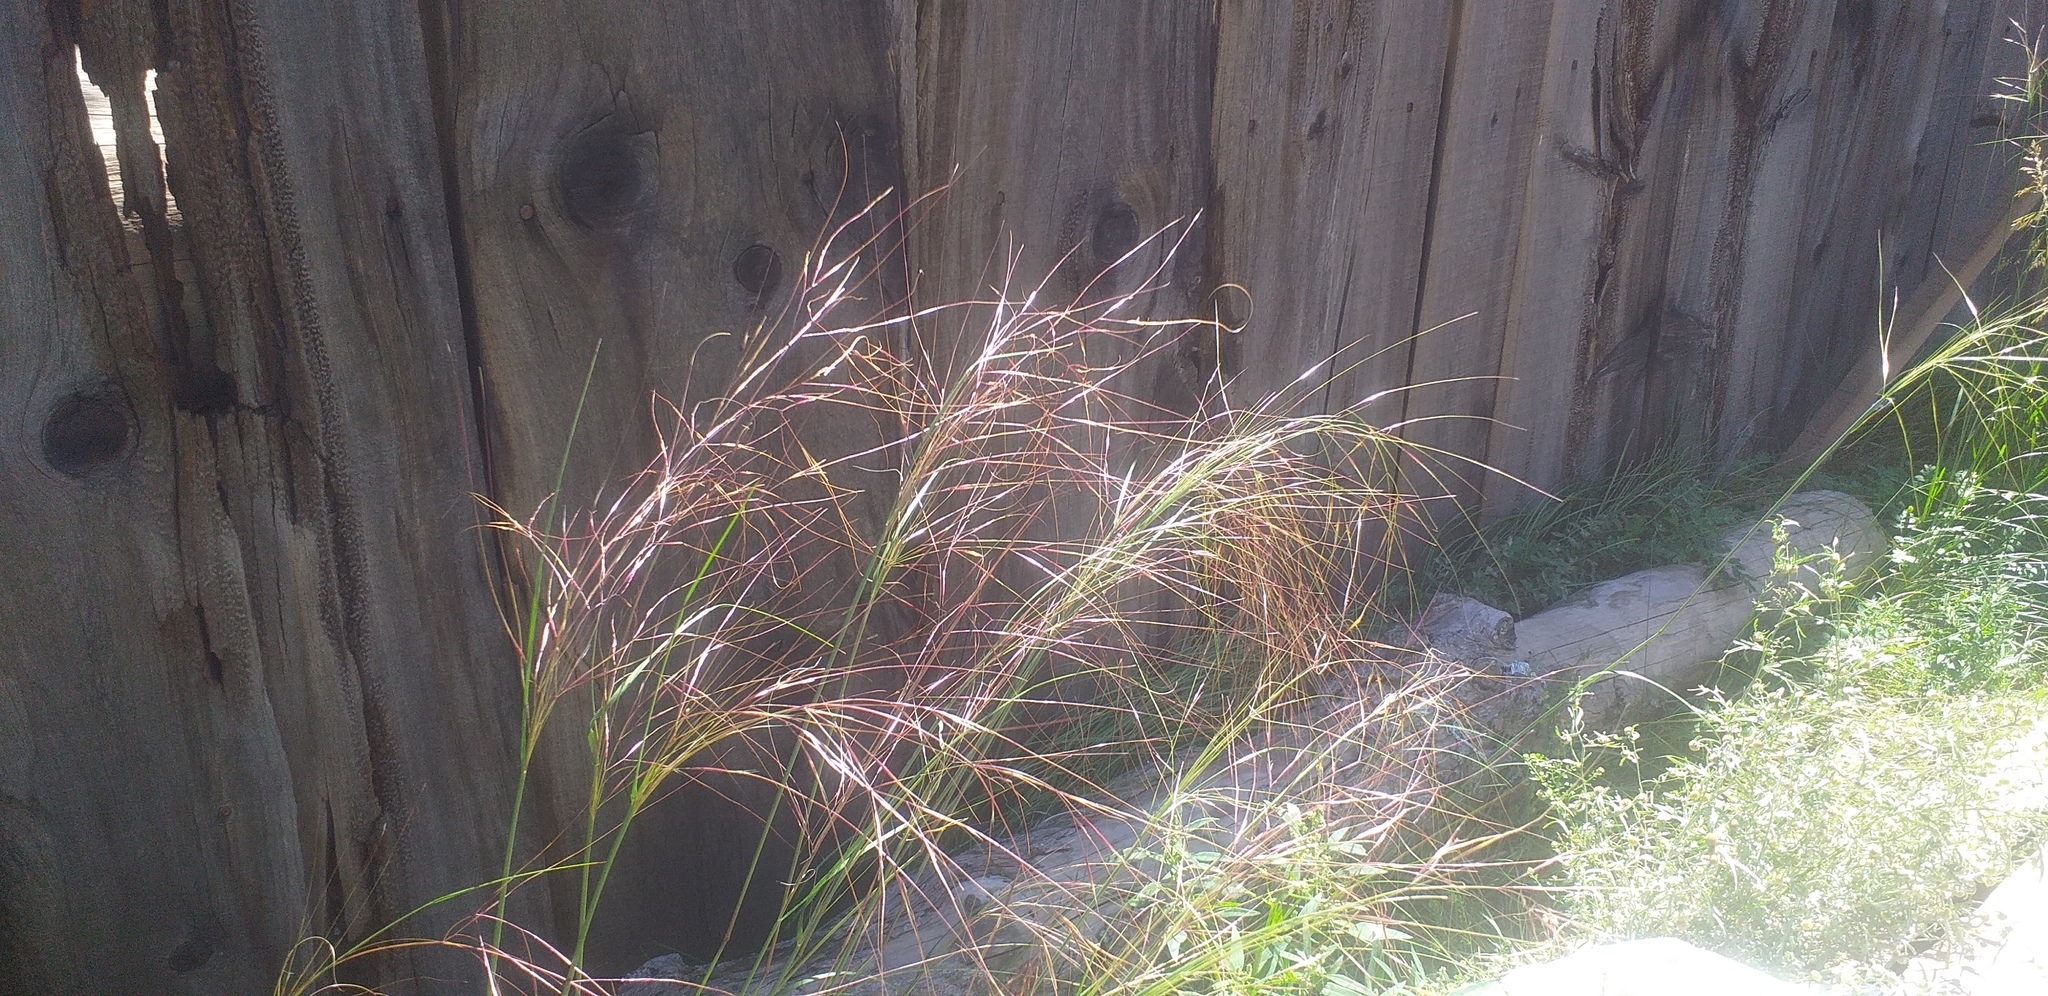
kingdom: Plantae
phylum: Tracheophyta
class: Liliopsida
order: Poales
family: Poaceae
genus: Stipa
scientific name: Stipa krylovii
